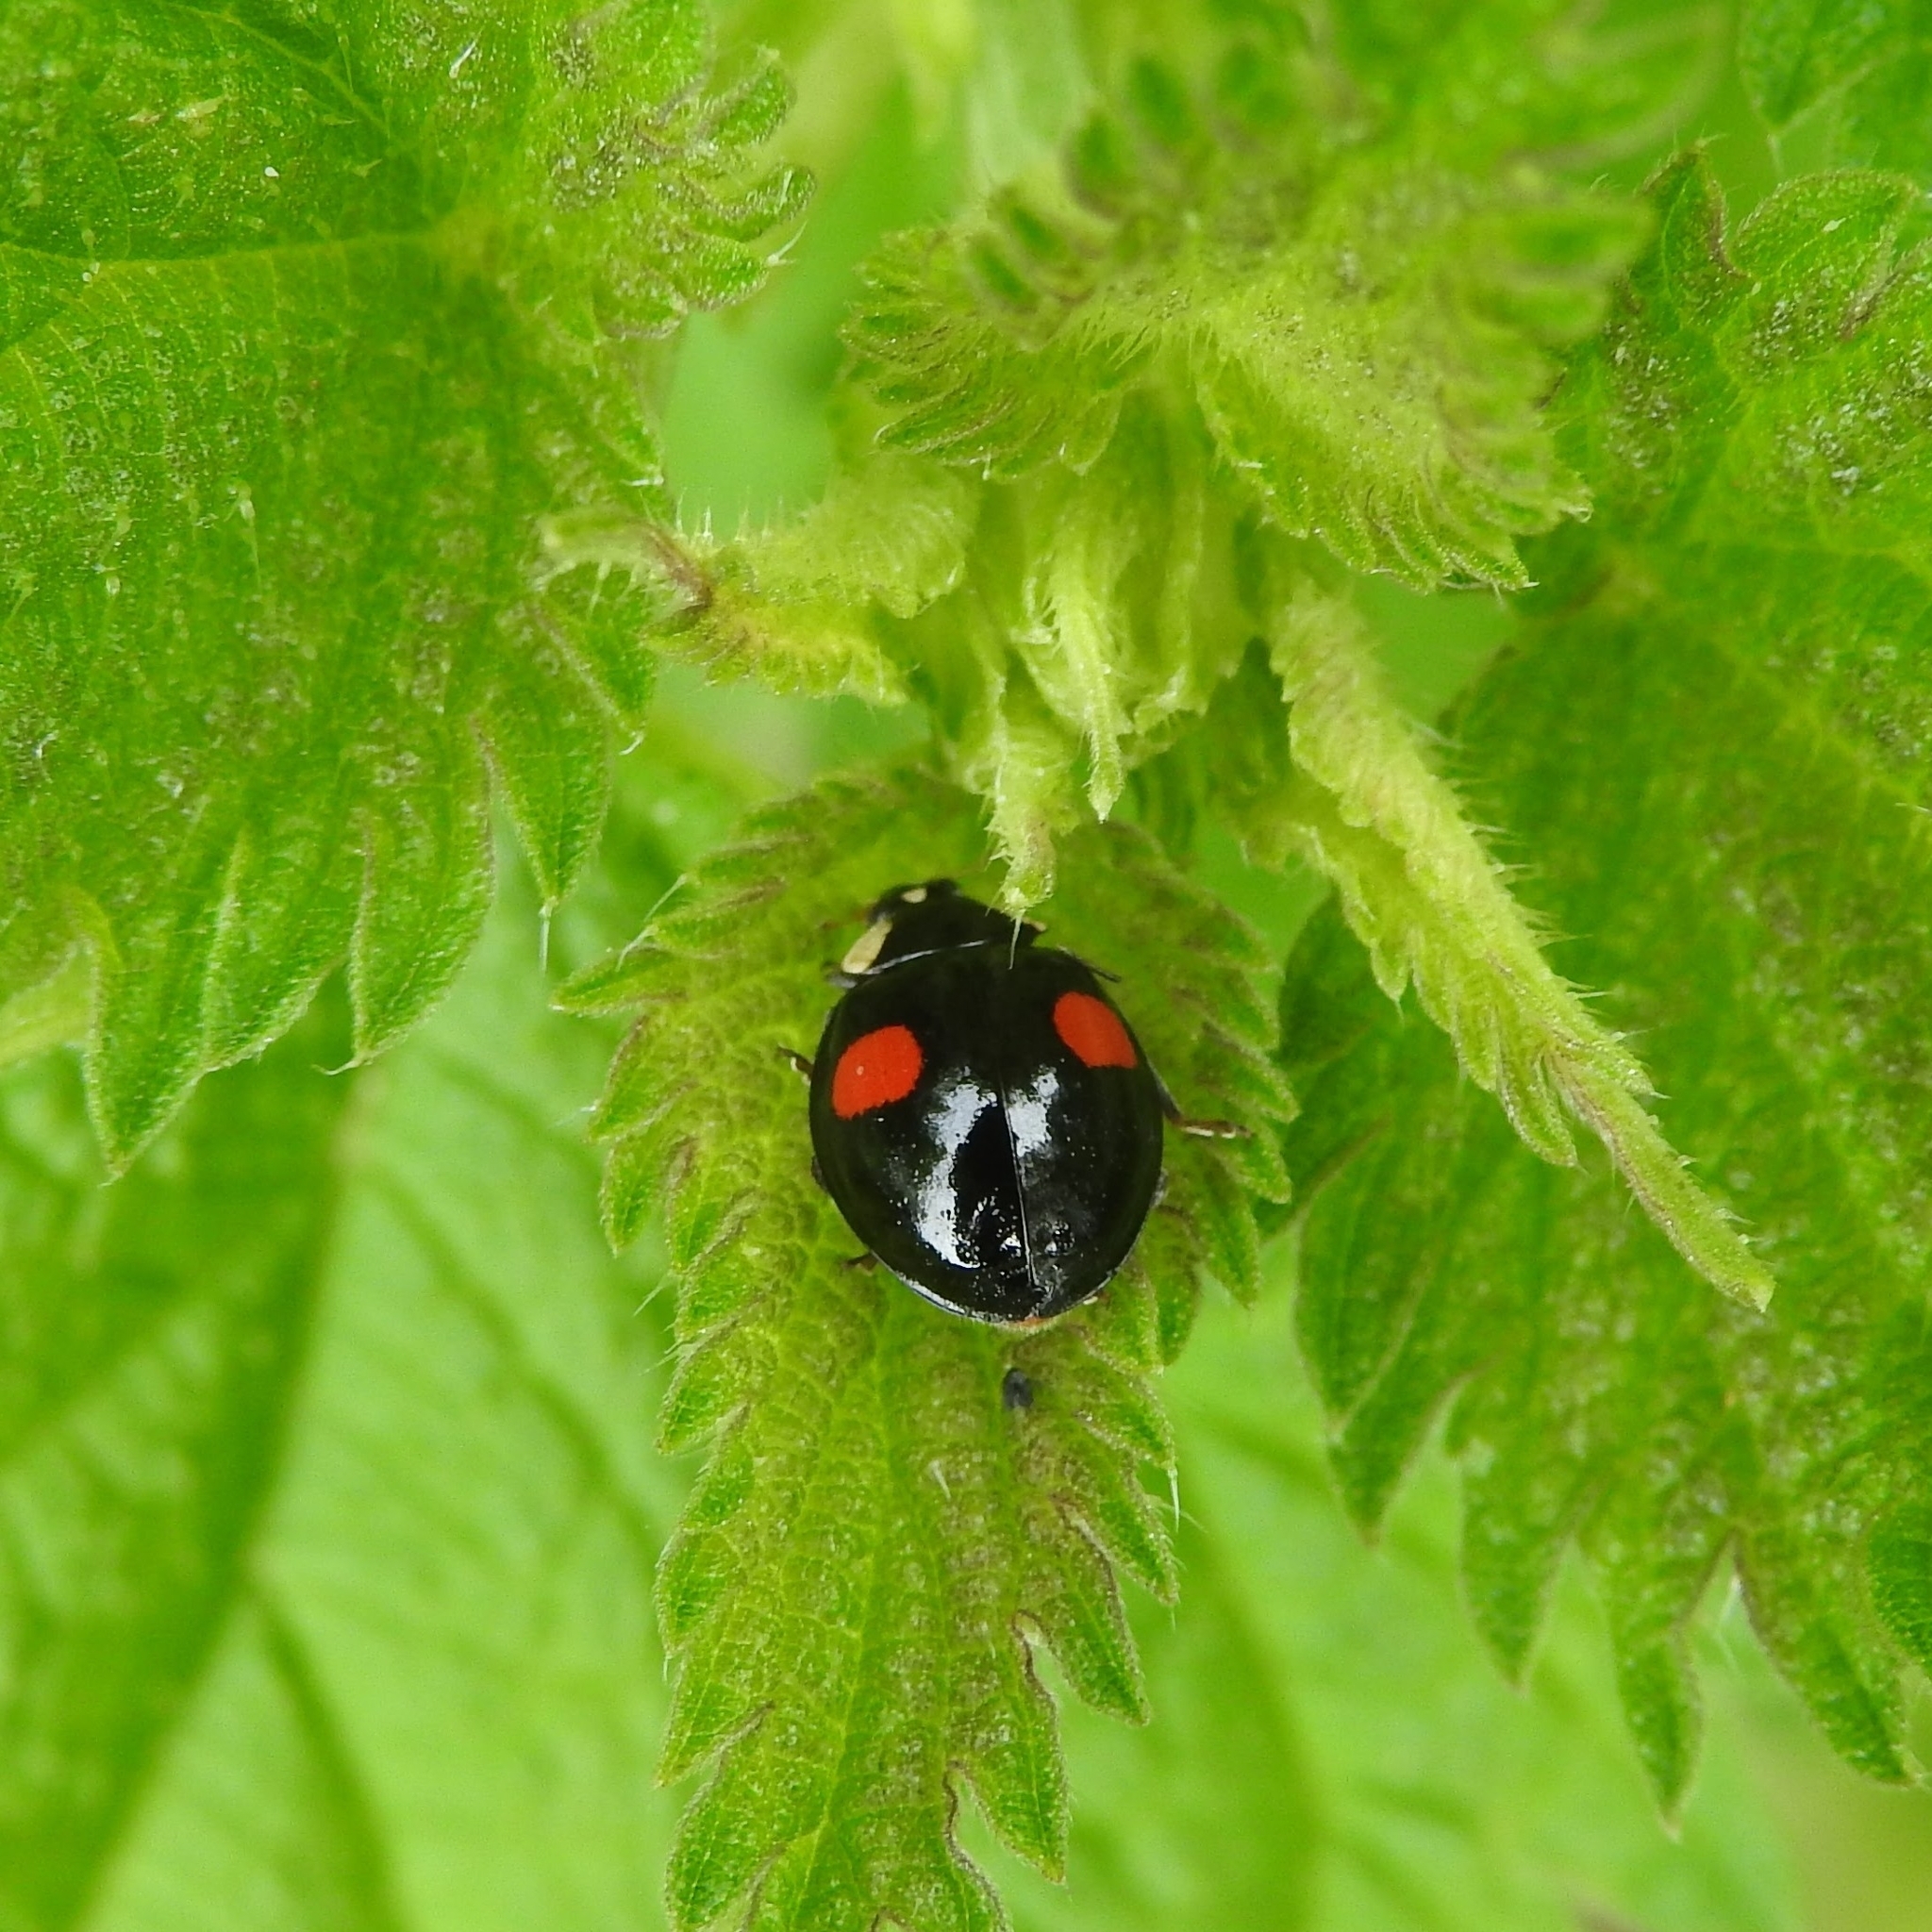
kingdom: Animalia
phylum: Arthropoda
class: Insecta
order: Coleoptera
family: Coccinellidae
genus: Harmonia
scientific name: Harmonia axyridis
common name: Harlequin ladybird
